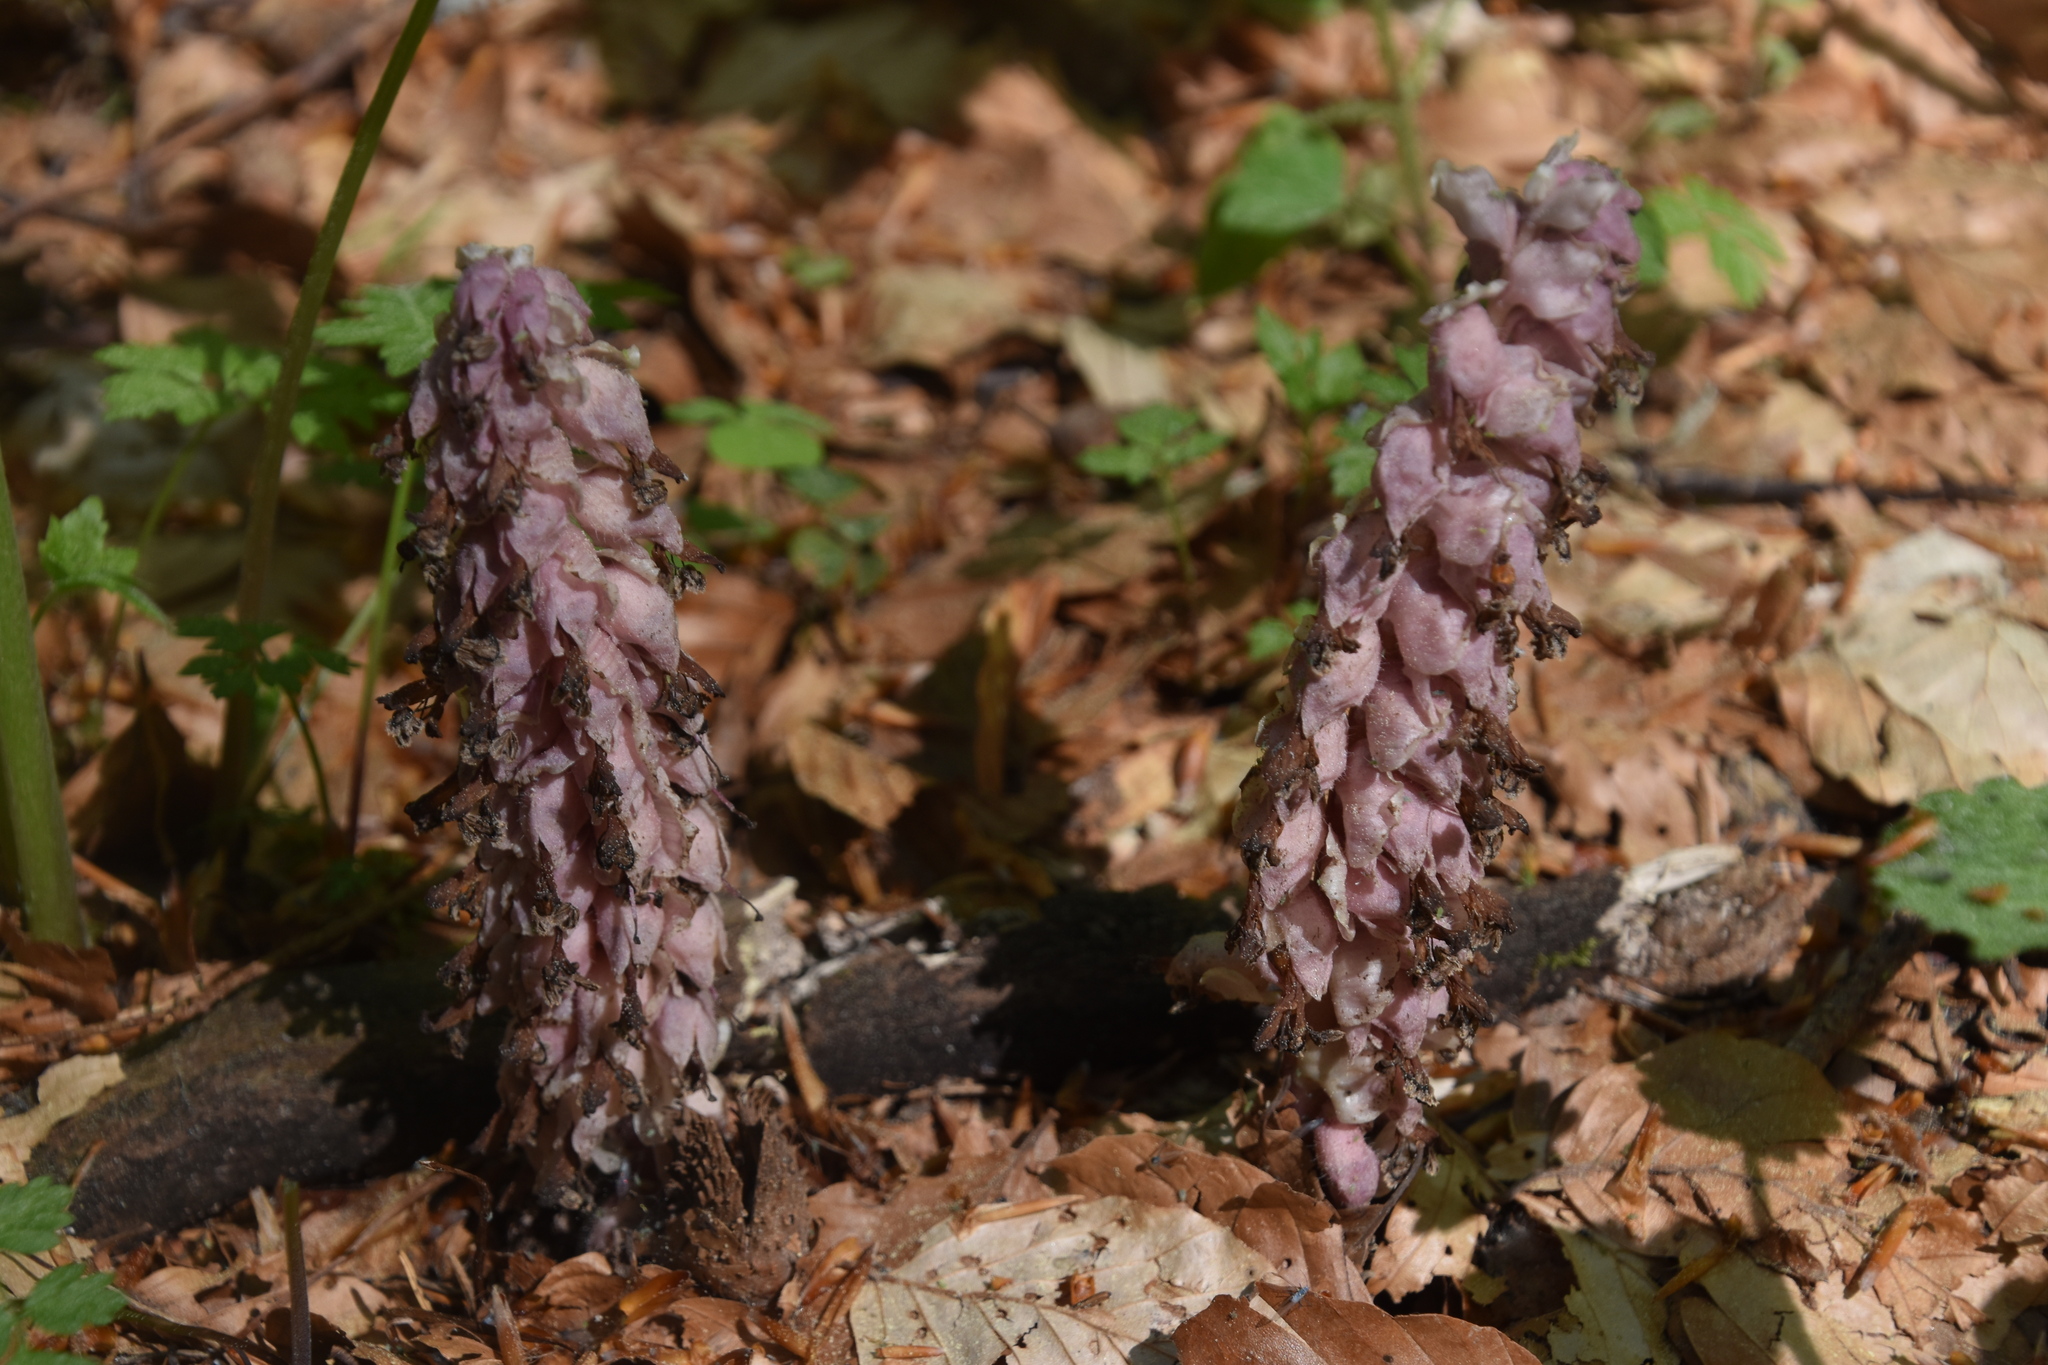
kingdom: Plantae
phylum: Tracheophyta
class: Magnoliopsida
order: Lamiales
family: Orobanchaceae
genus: Lathraea
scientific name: Lathraea squamaria
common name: Toothwort
